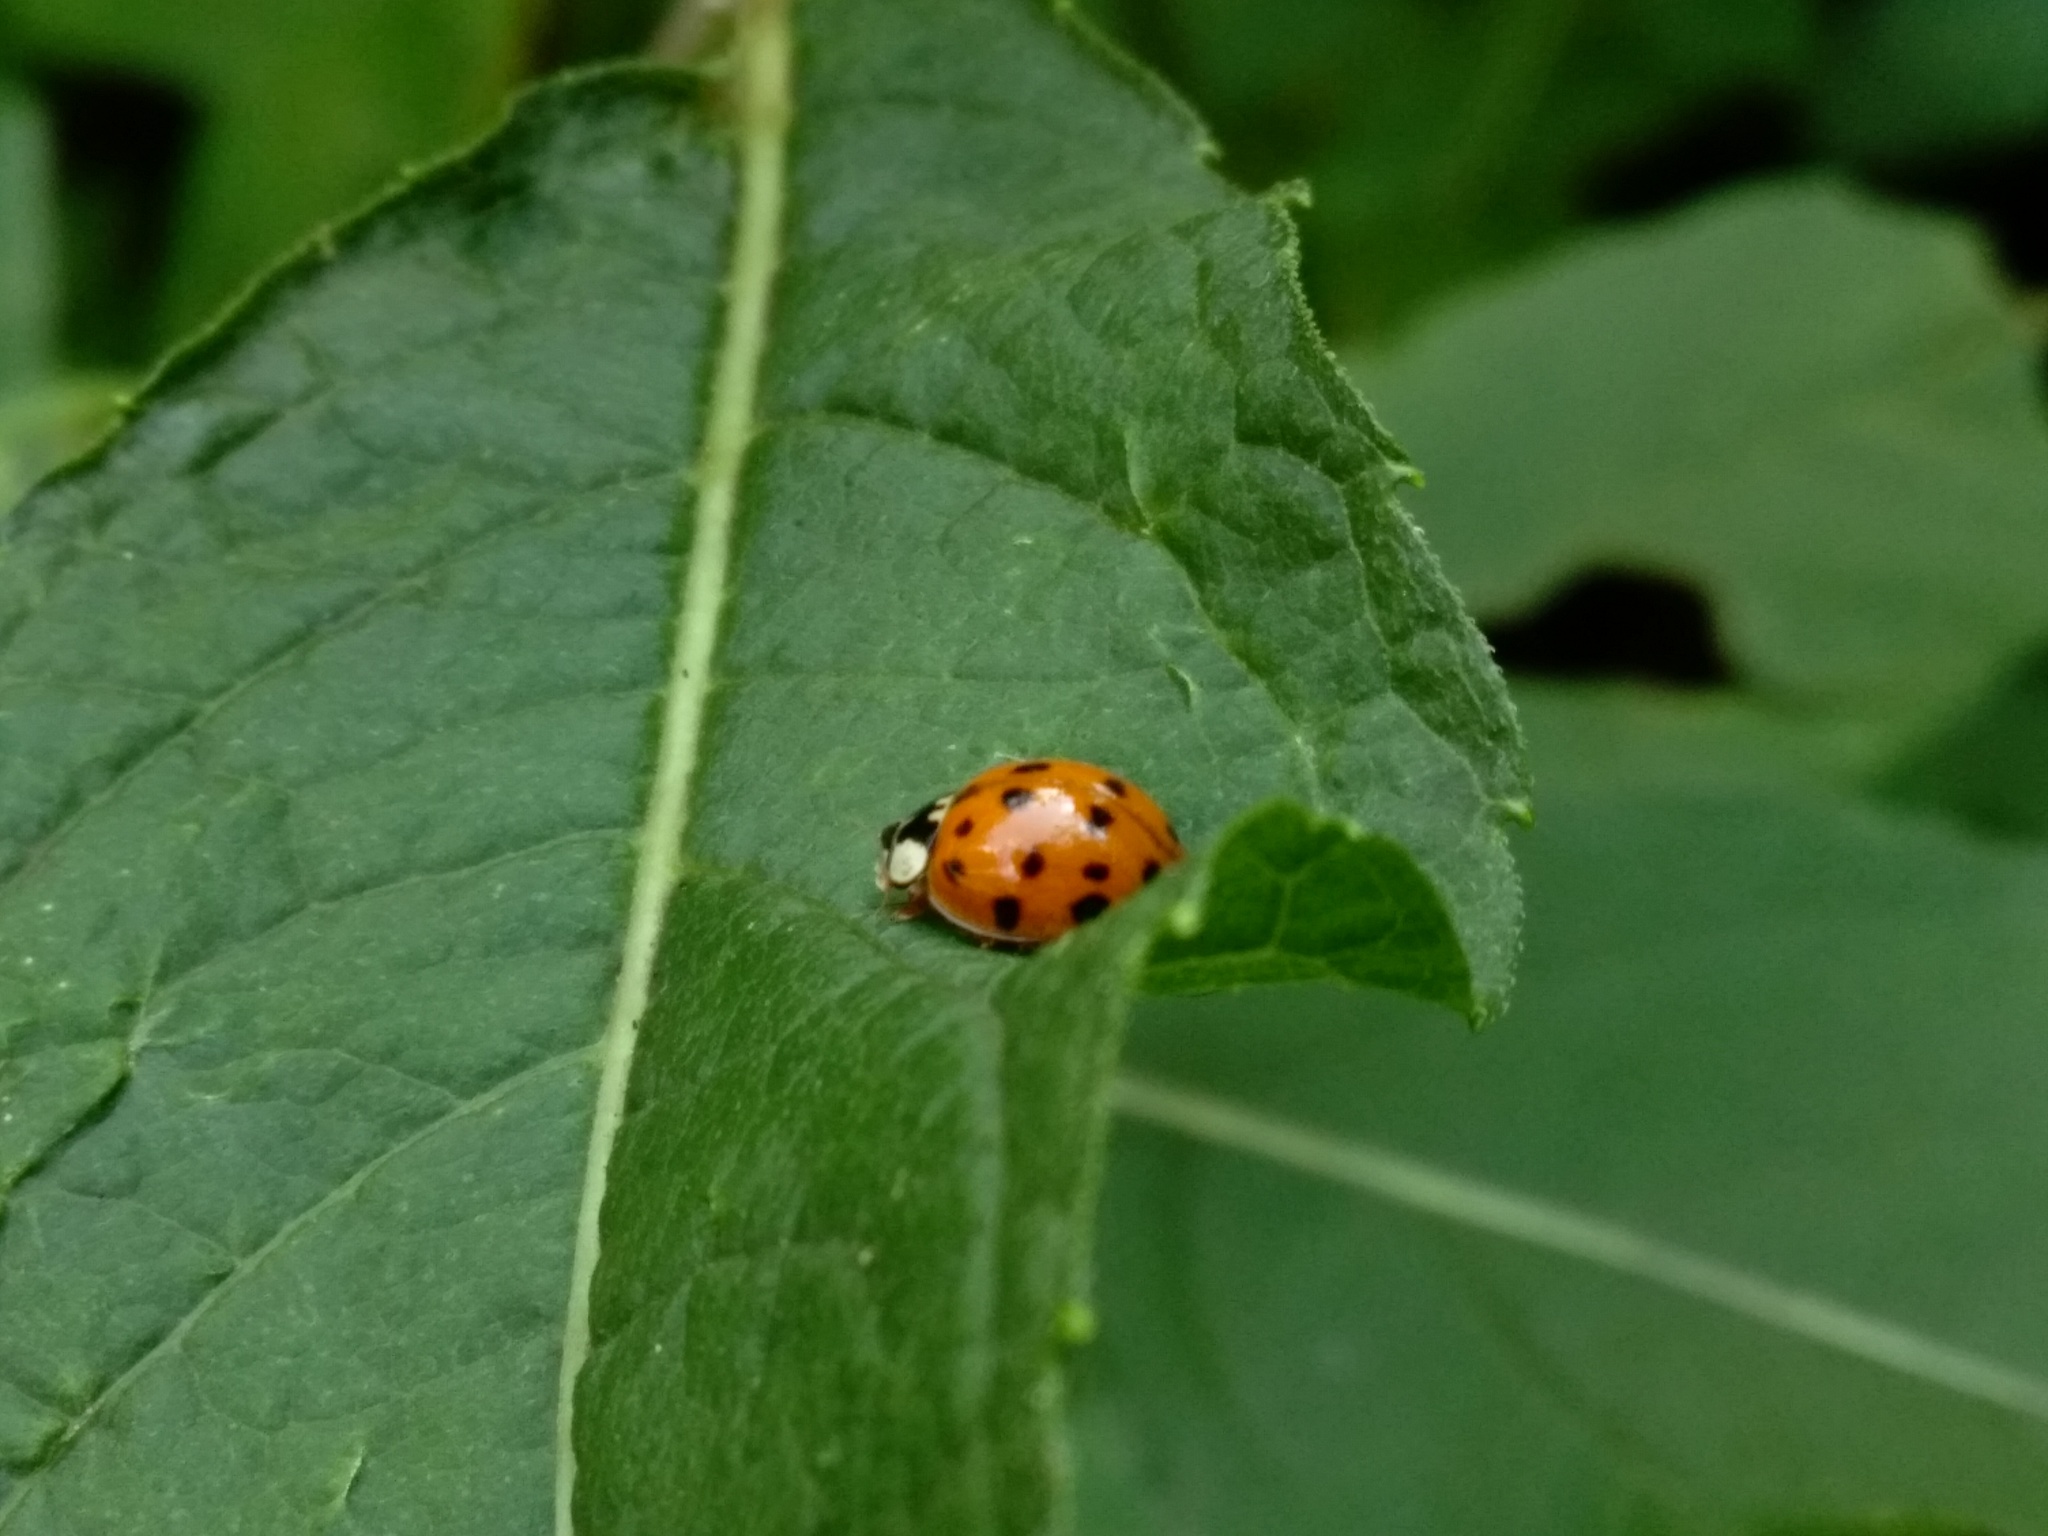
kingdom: Animalia
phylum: Arthropoda
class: Insecta
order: Coleoptera
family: Coccinellidae
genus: Harmonia
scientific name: Harmonia axyridis
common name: Harlequin ladybird
